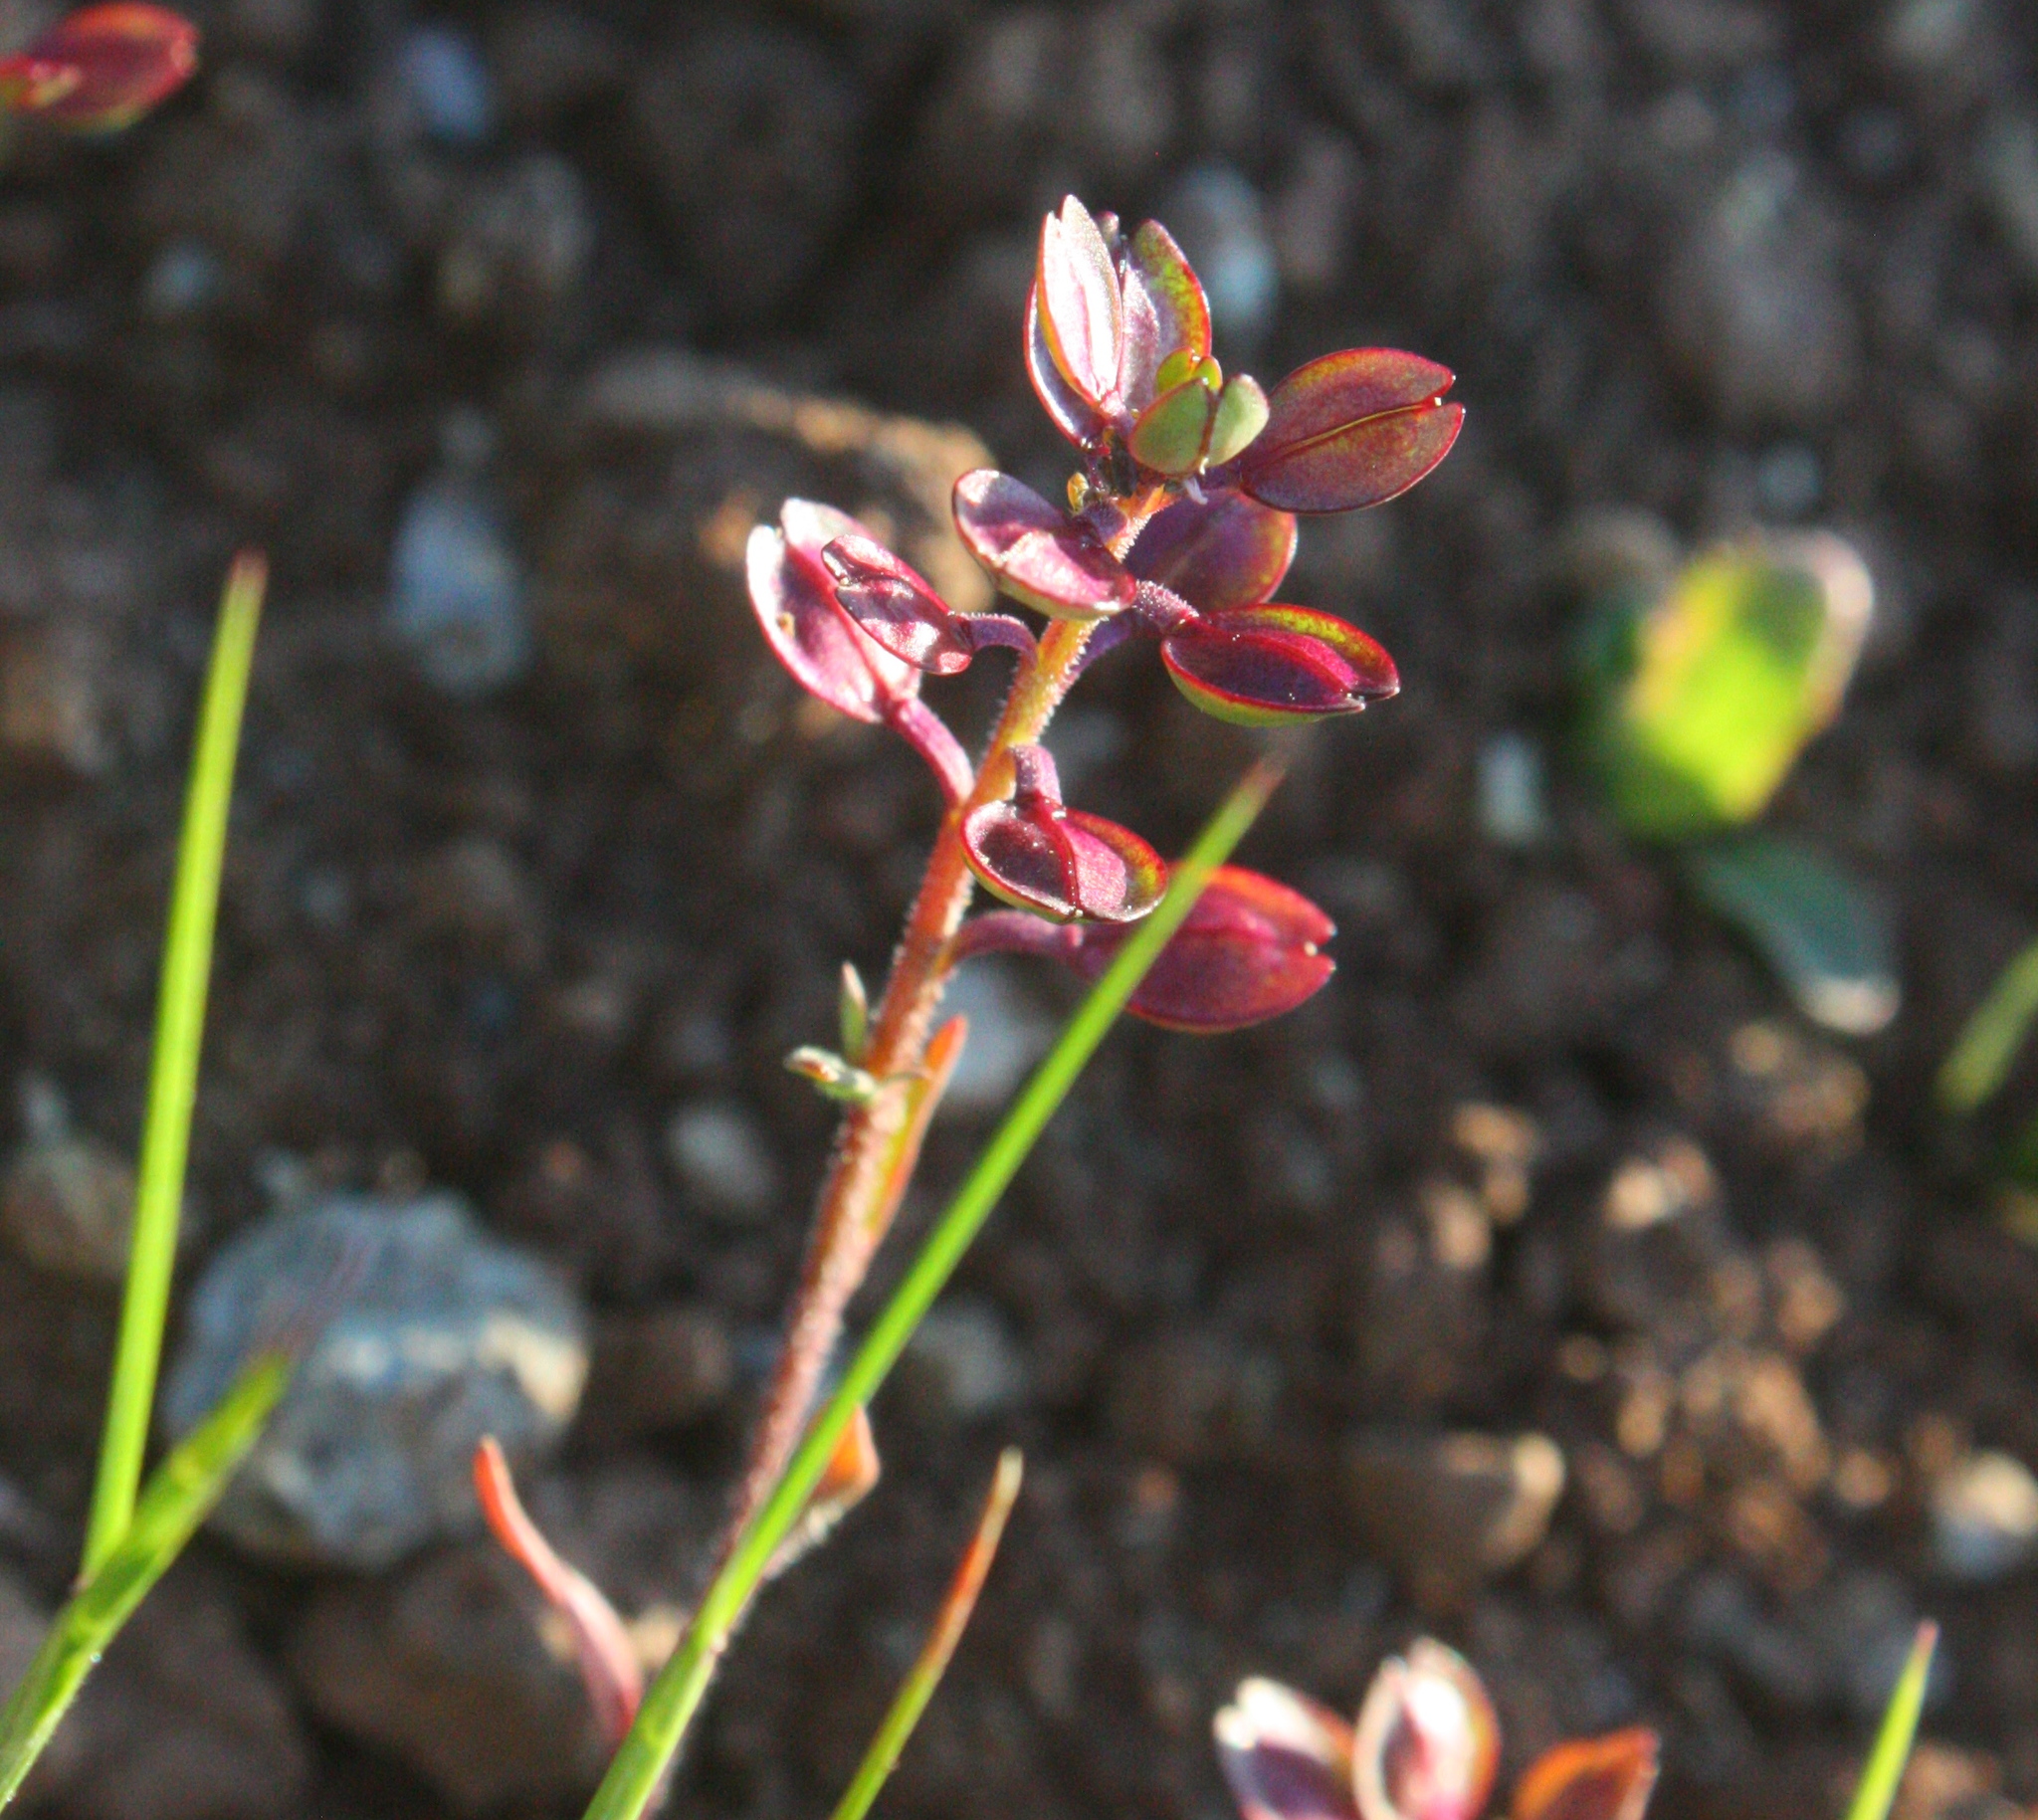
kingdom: Plantae
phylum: Tracheophyta
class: Magnoliopsida
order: Brassicales
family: Brassicaceae
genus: Lepidium
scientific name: Lepidium nitidum
